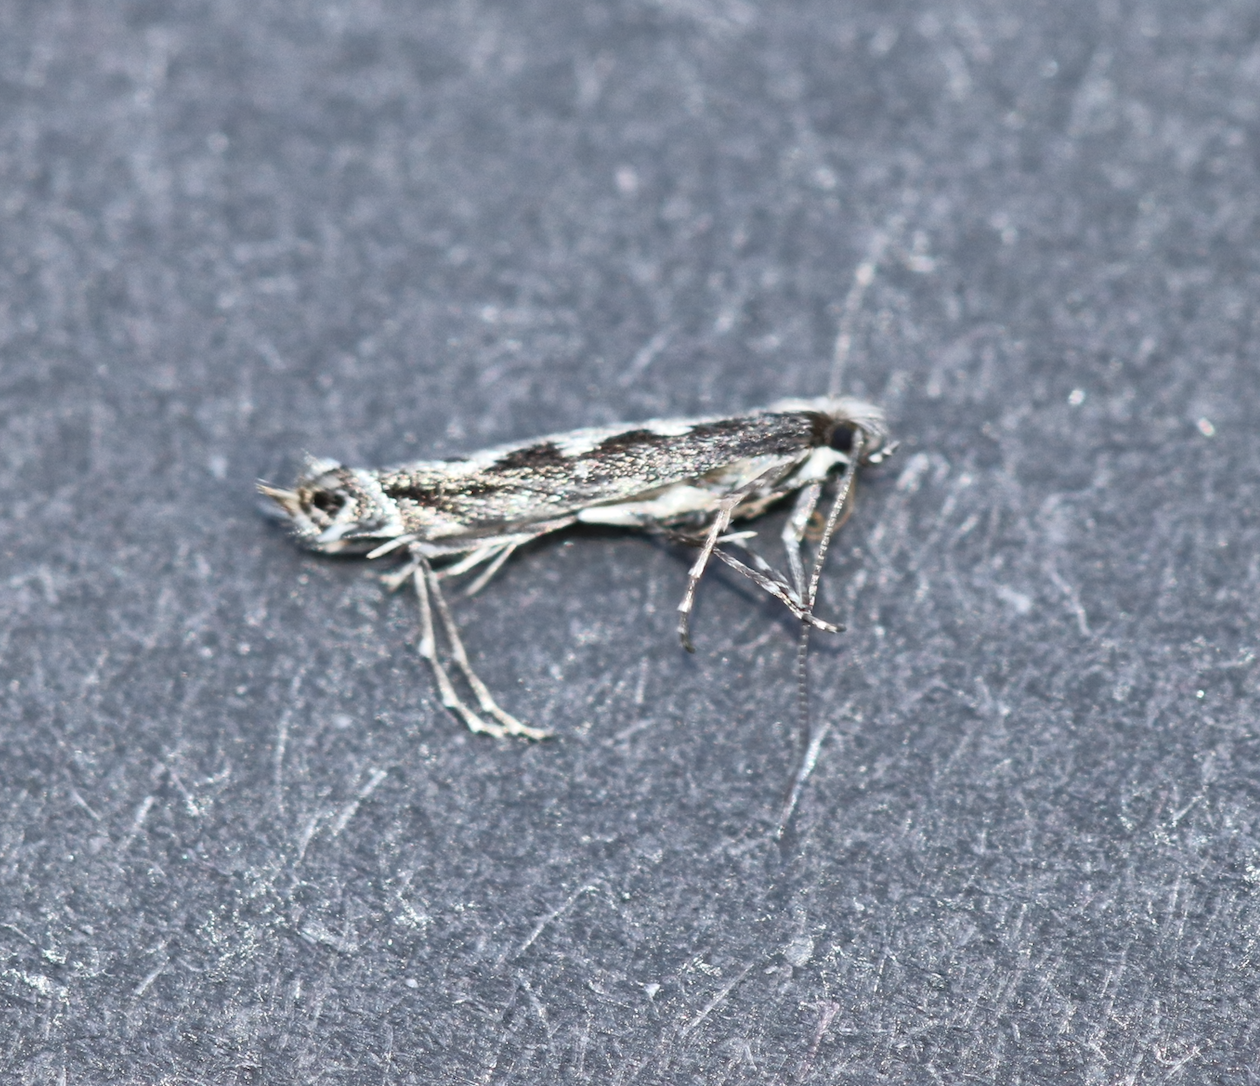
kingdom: Animalia
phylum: Arthropoda
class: Insecta
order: Lepidoptera
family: Gracillariidae
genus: Micrurapteryx
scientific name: Micrurapteryx salicifoliella
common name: Willow leaf blotch miner moth
